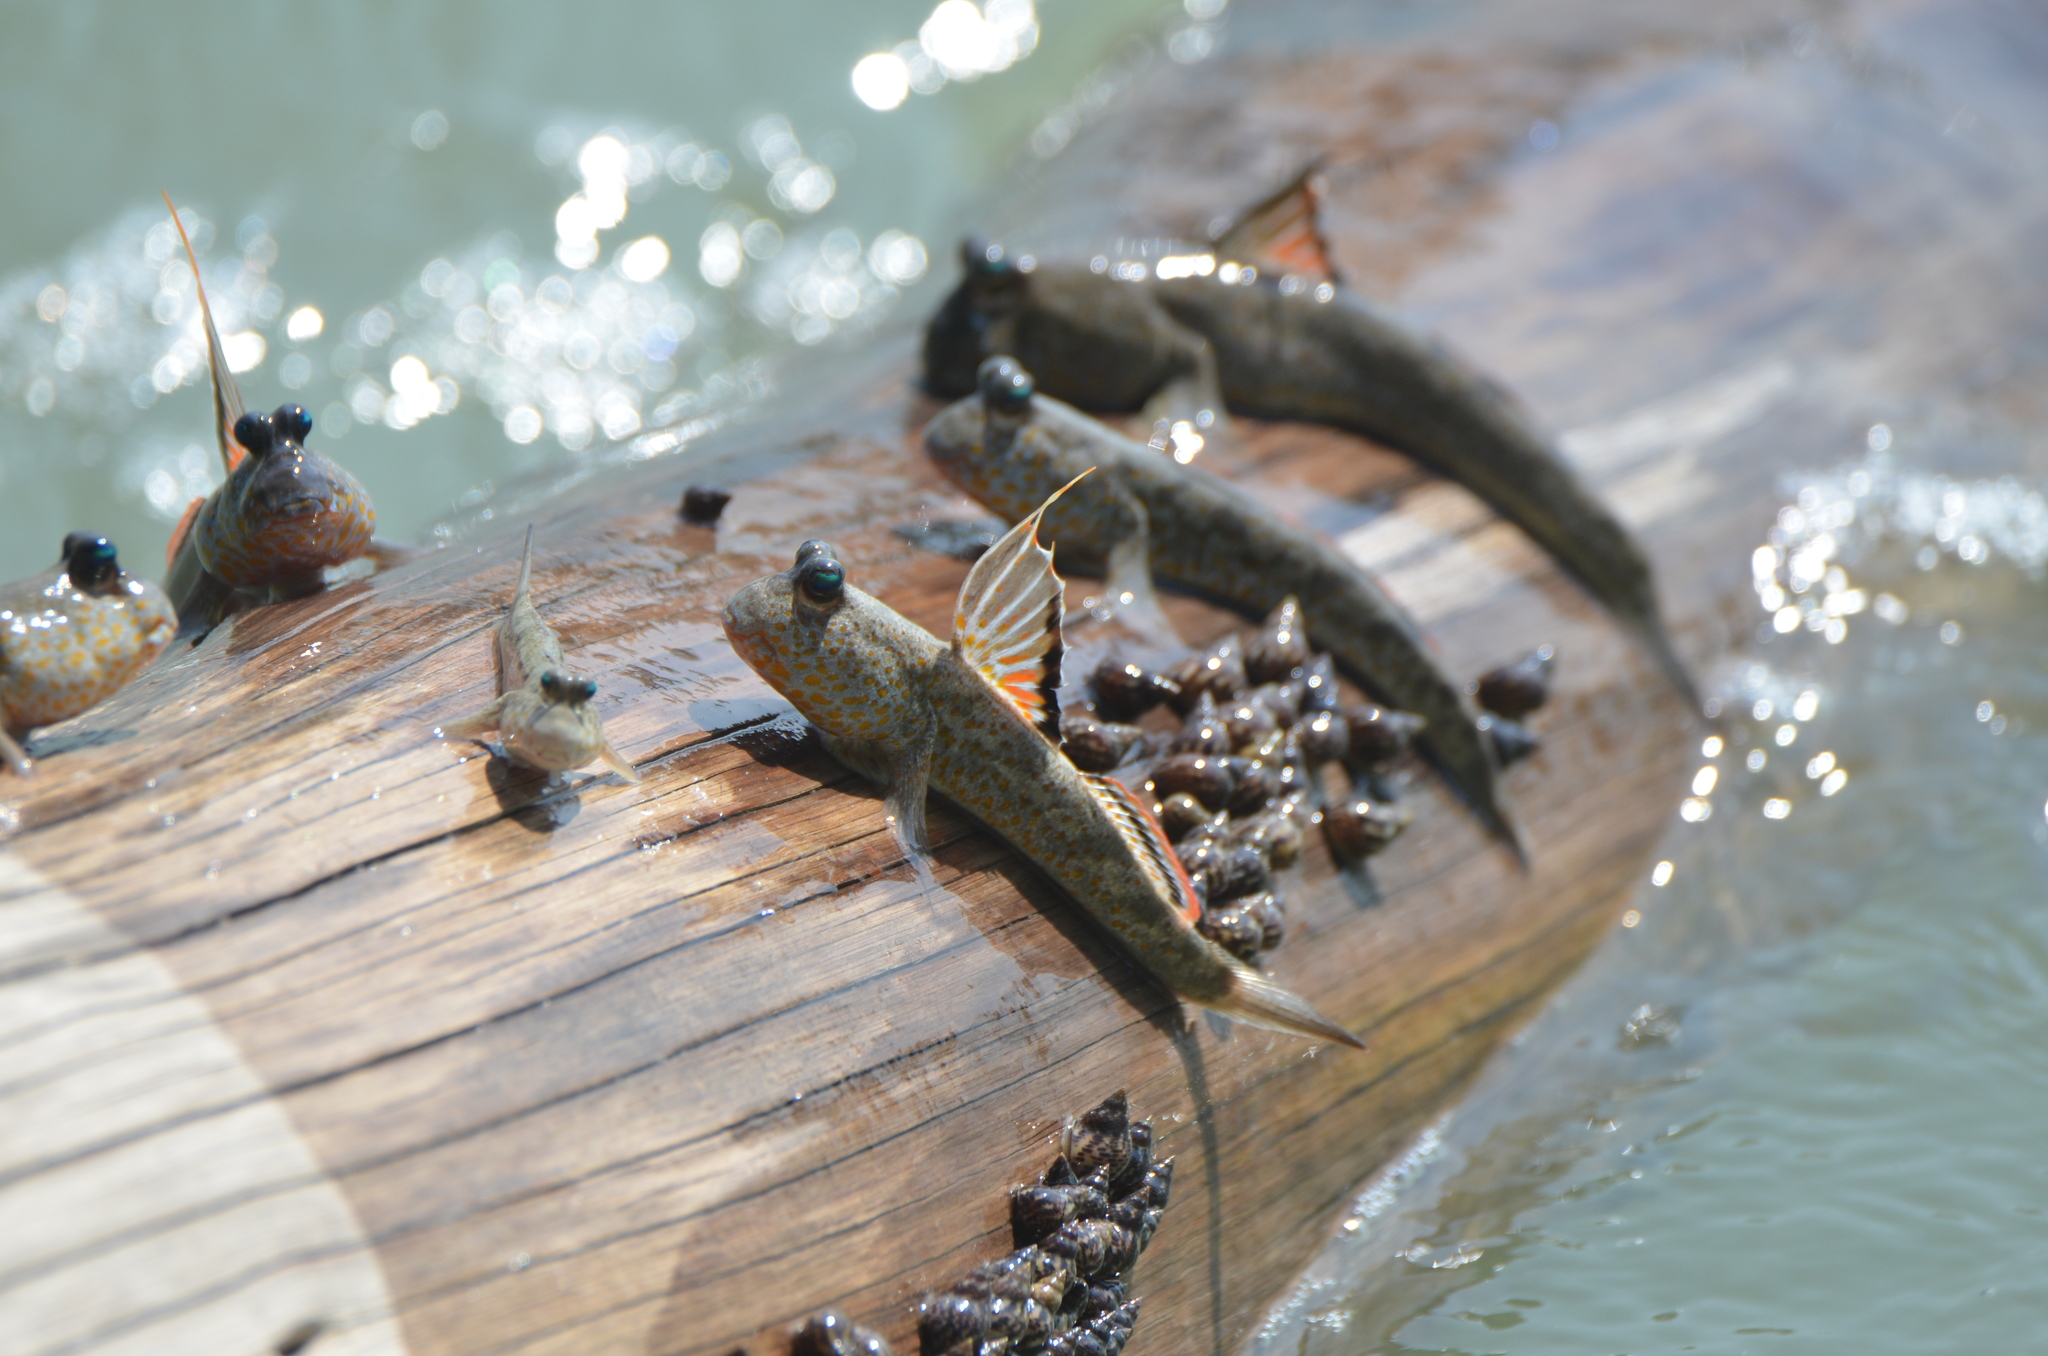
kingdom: Animalia
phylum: Chordata
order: Perciformes
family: Gobiidae
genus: Periophthalmus
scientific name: Periophthalmus chrysospilos
